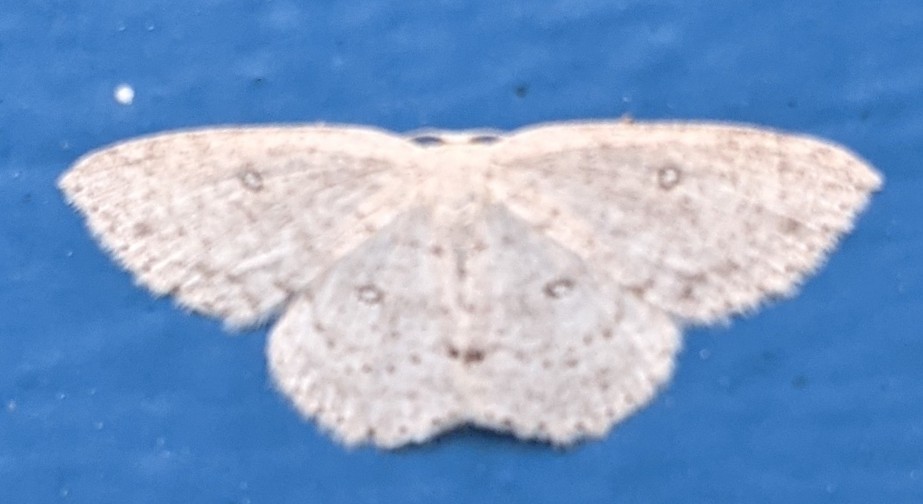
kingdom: Animalia
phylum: Arthropoda
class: Insecta
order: Lepidoptera
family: Geometridae
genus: Cyclophora
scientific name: Cyclophora pendulinaria
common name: Sweet fern geometer
